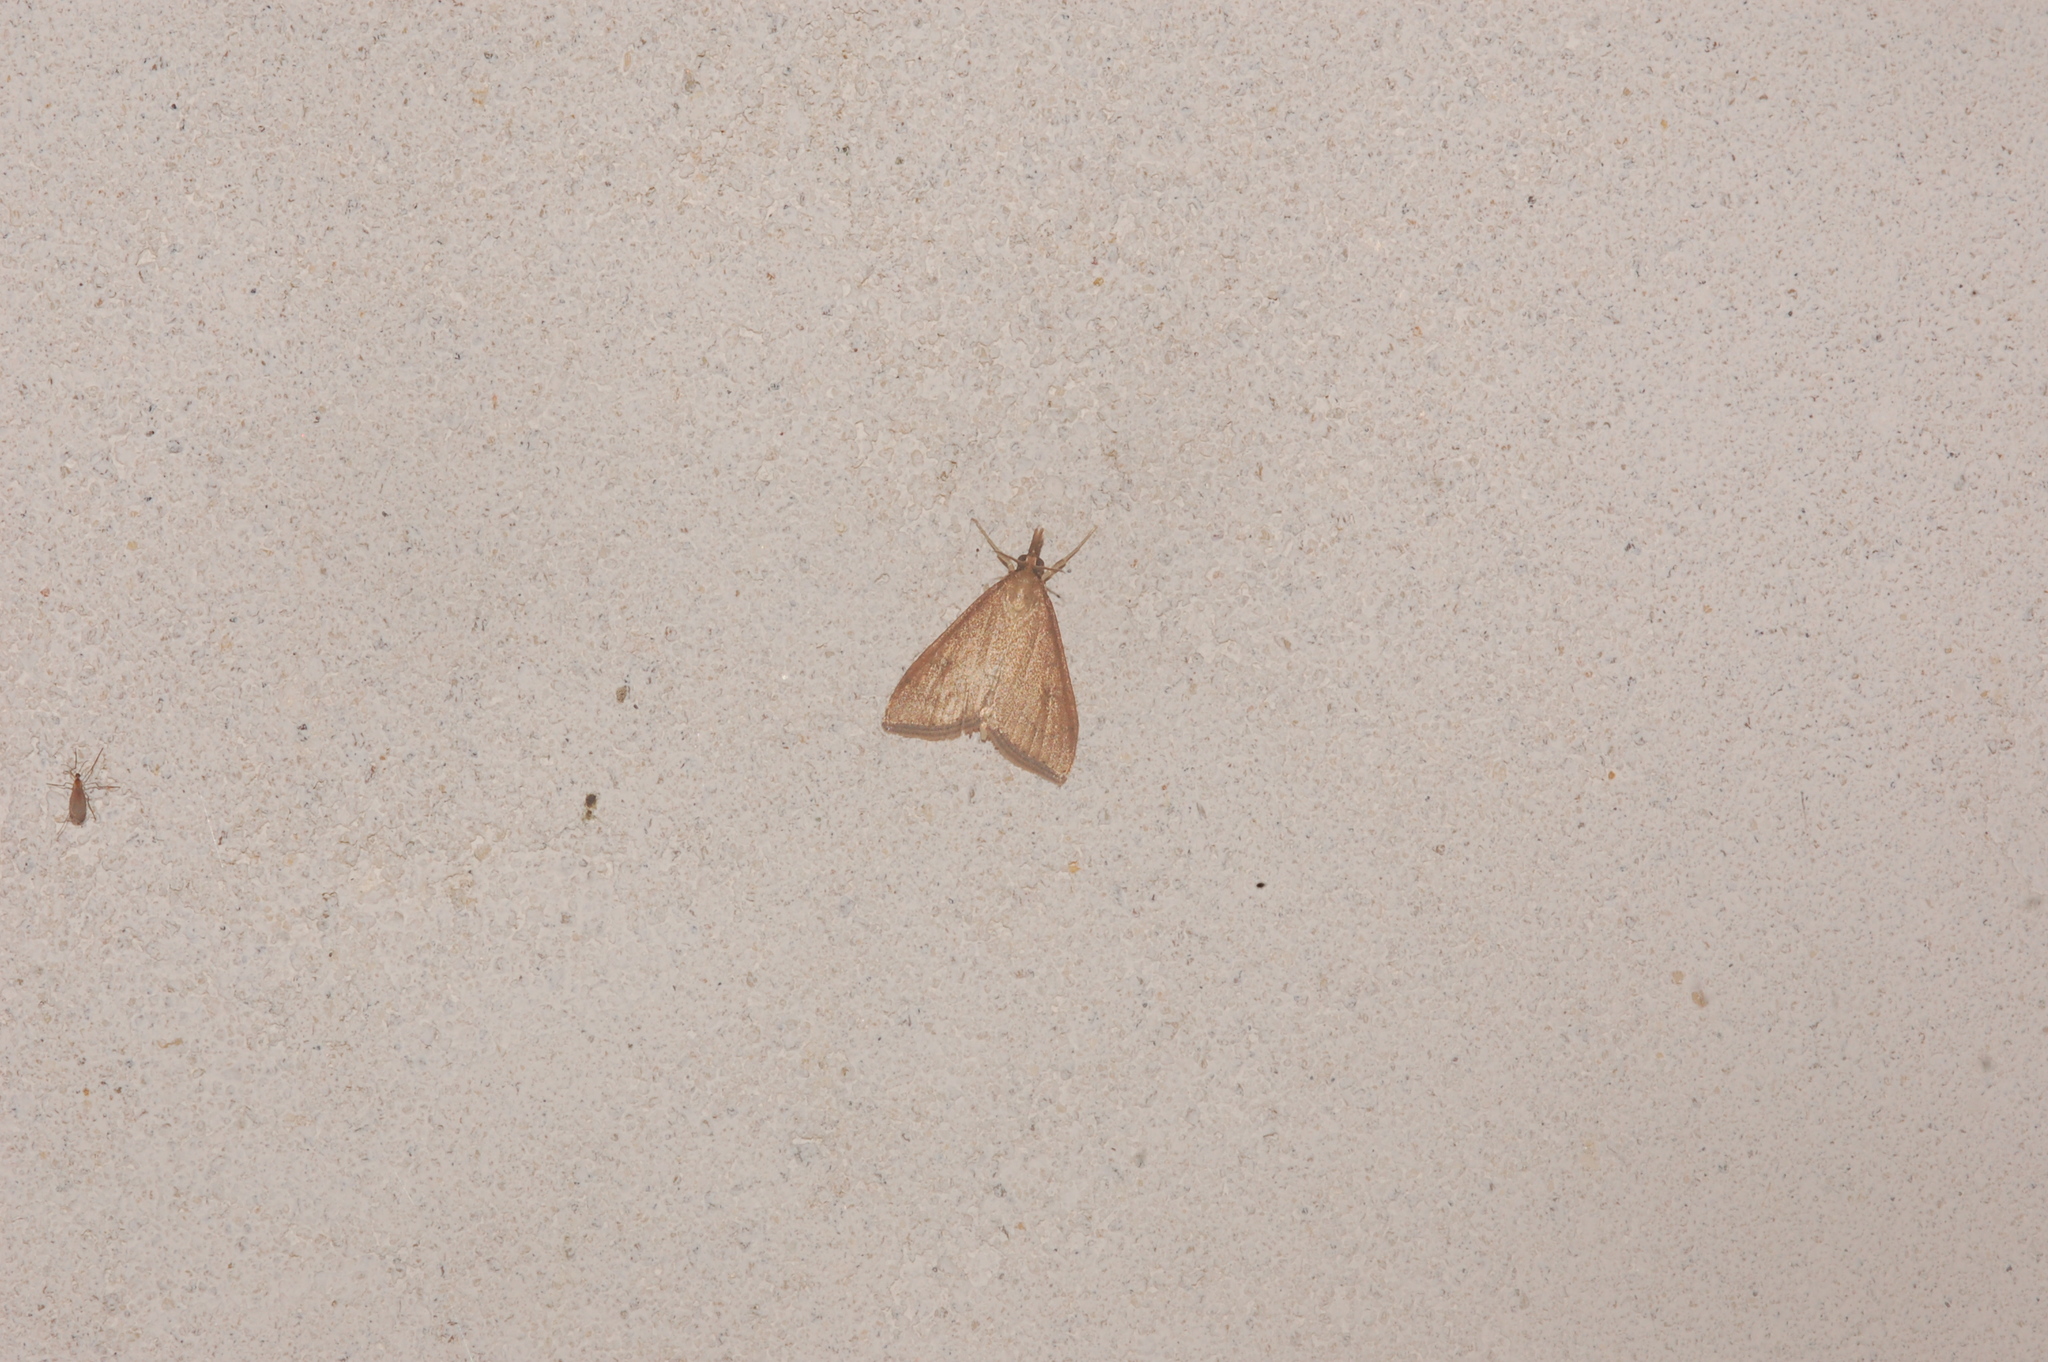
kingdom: Animalia
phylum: Arthropoda
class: Insecta
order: Lepidoptera
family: Crambidae
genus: Udea
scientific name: Udea rubigalis
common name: Celery leaftier moth
